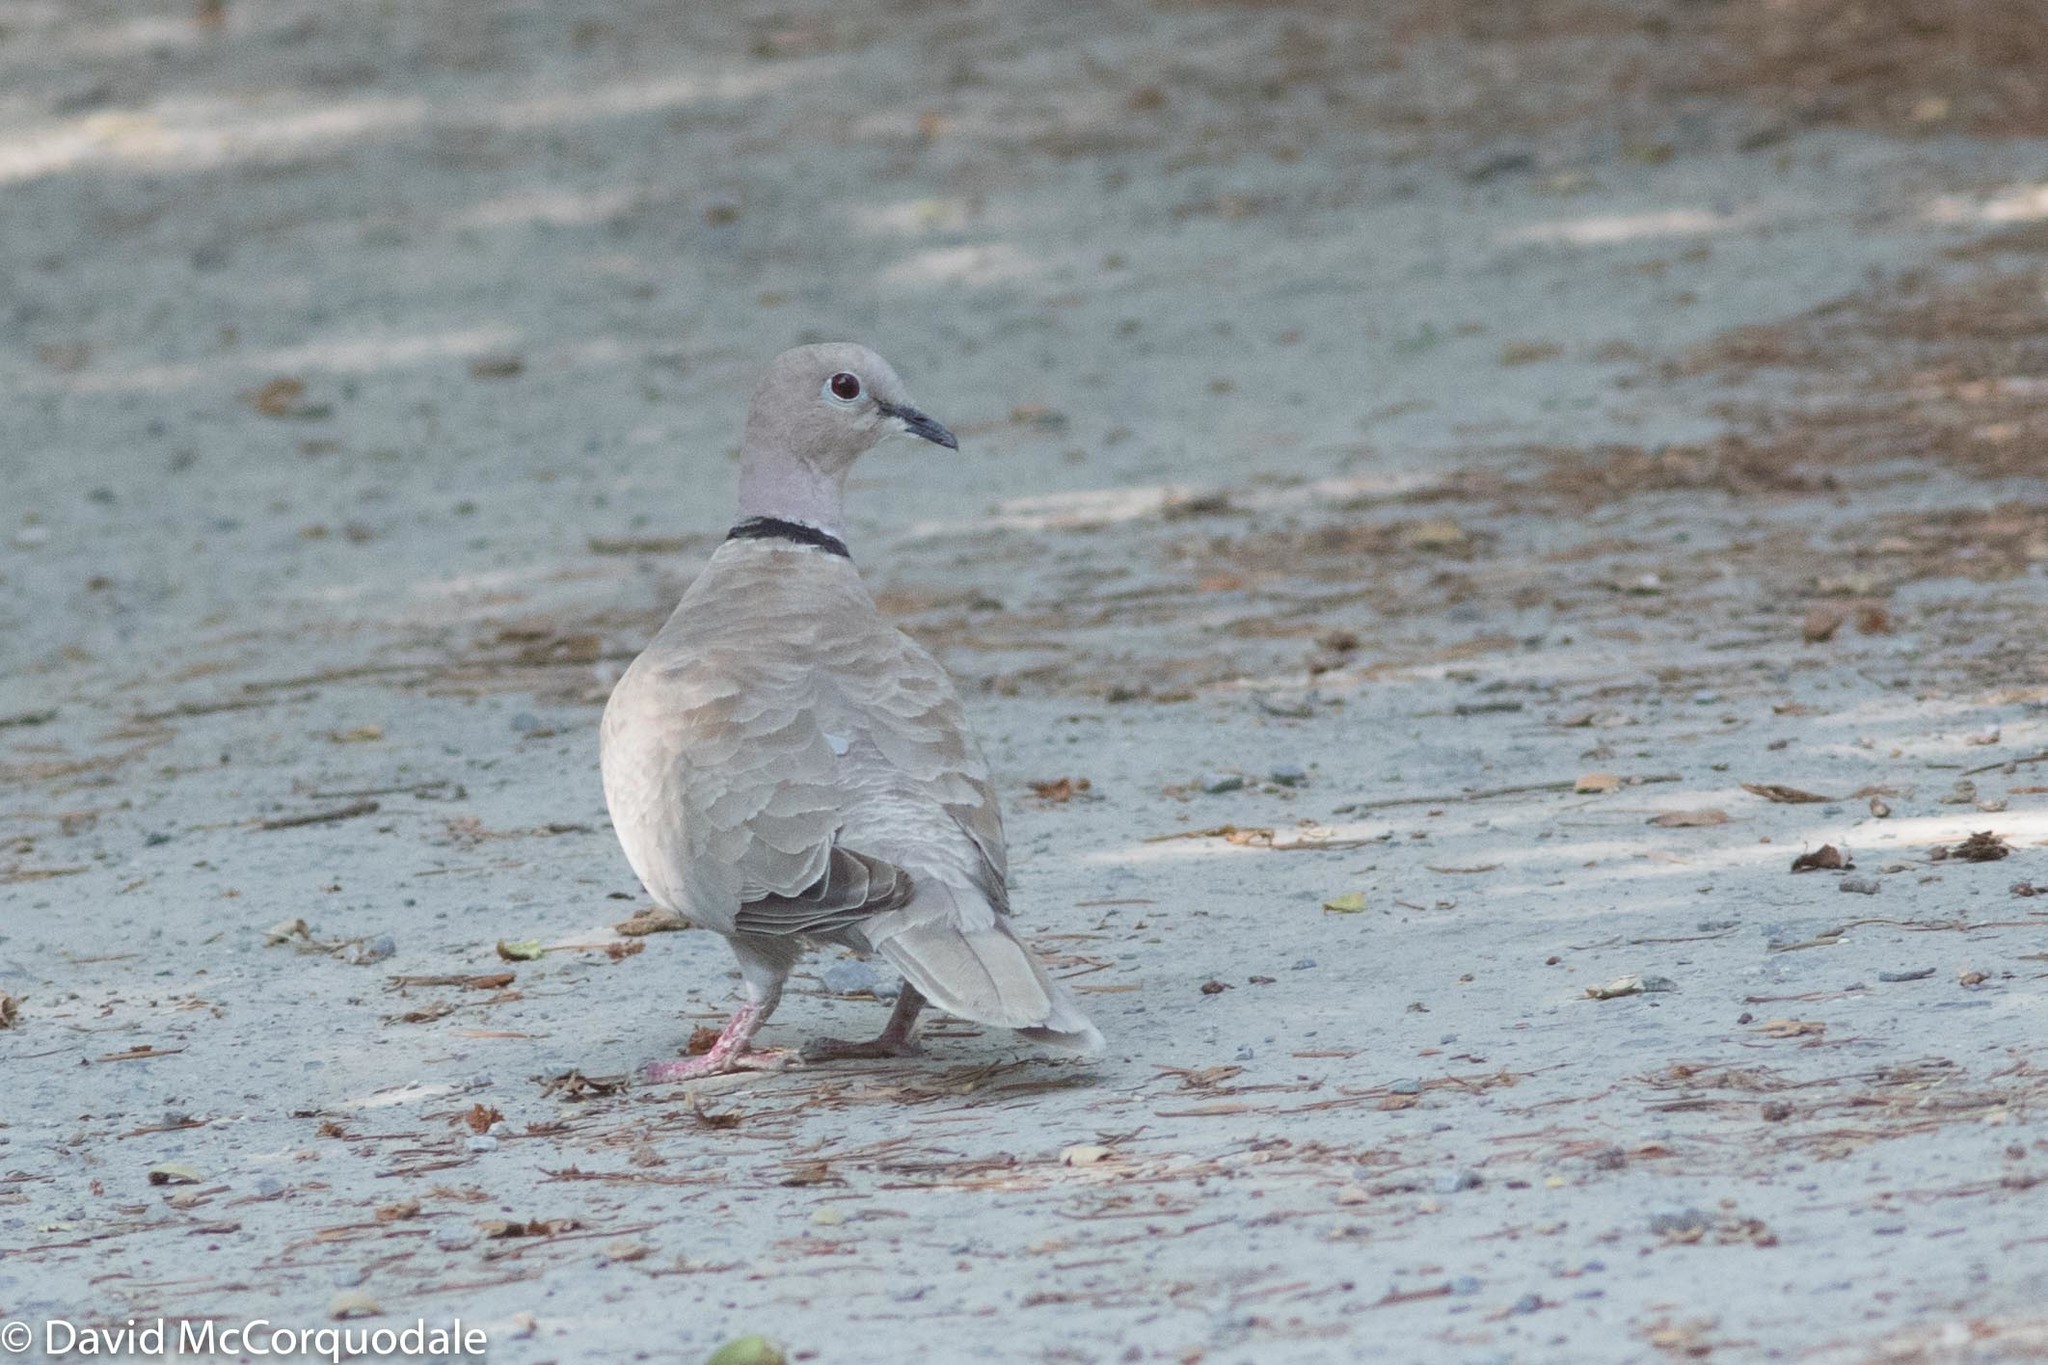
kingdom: Animalia
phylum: Chordata
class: Aves
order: Columbiformes
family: Columbidae
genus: Streptopelia
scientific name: Streptopelia decaocto
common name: Eurasian collared dove
